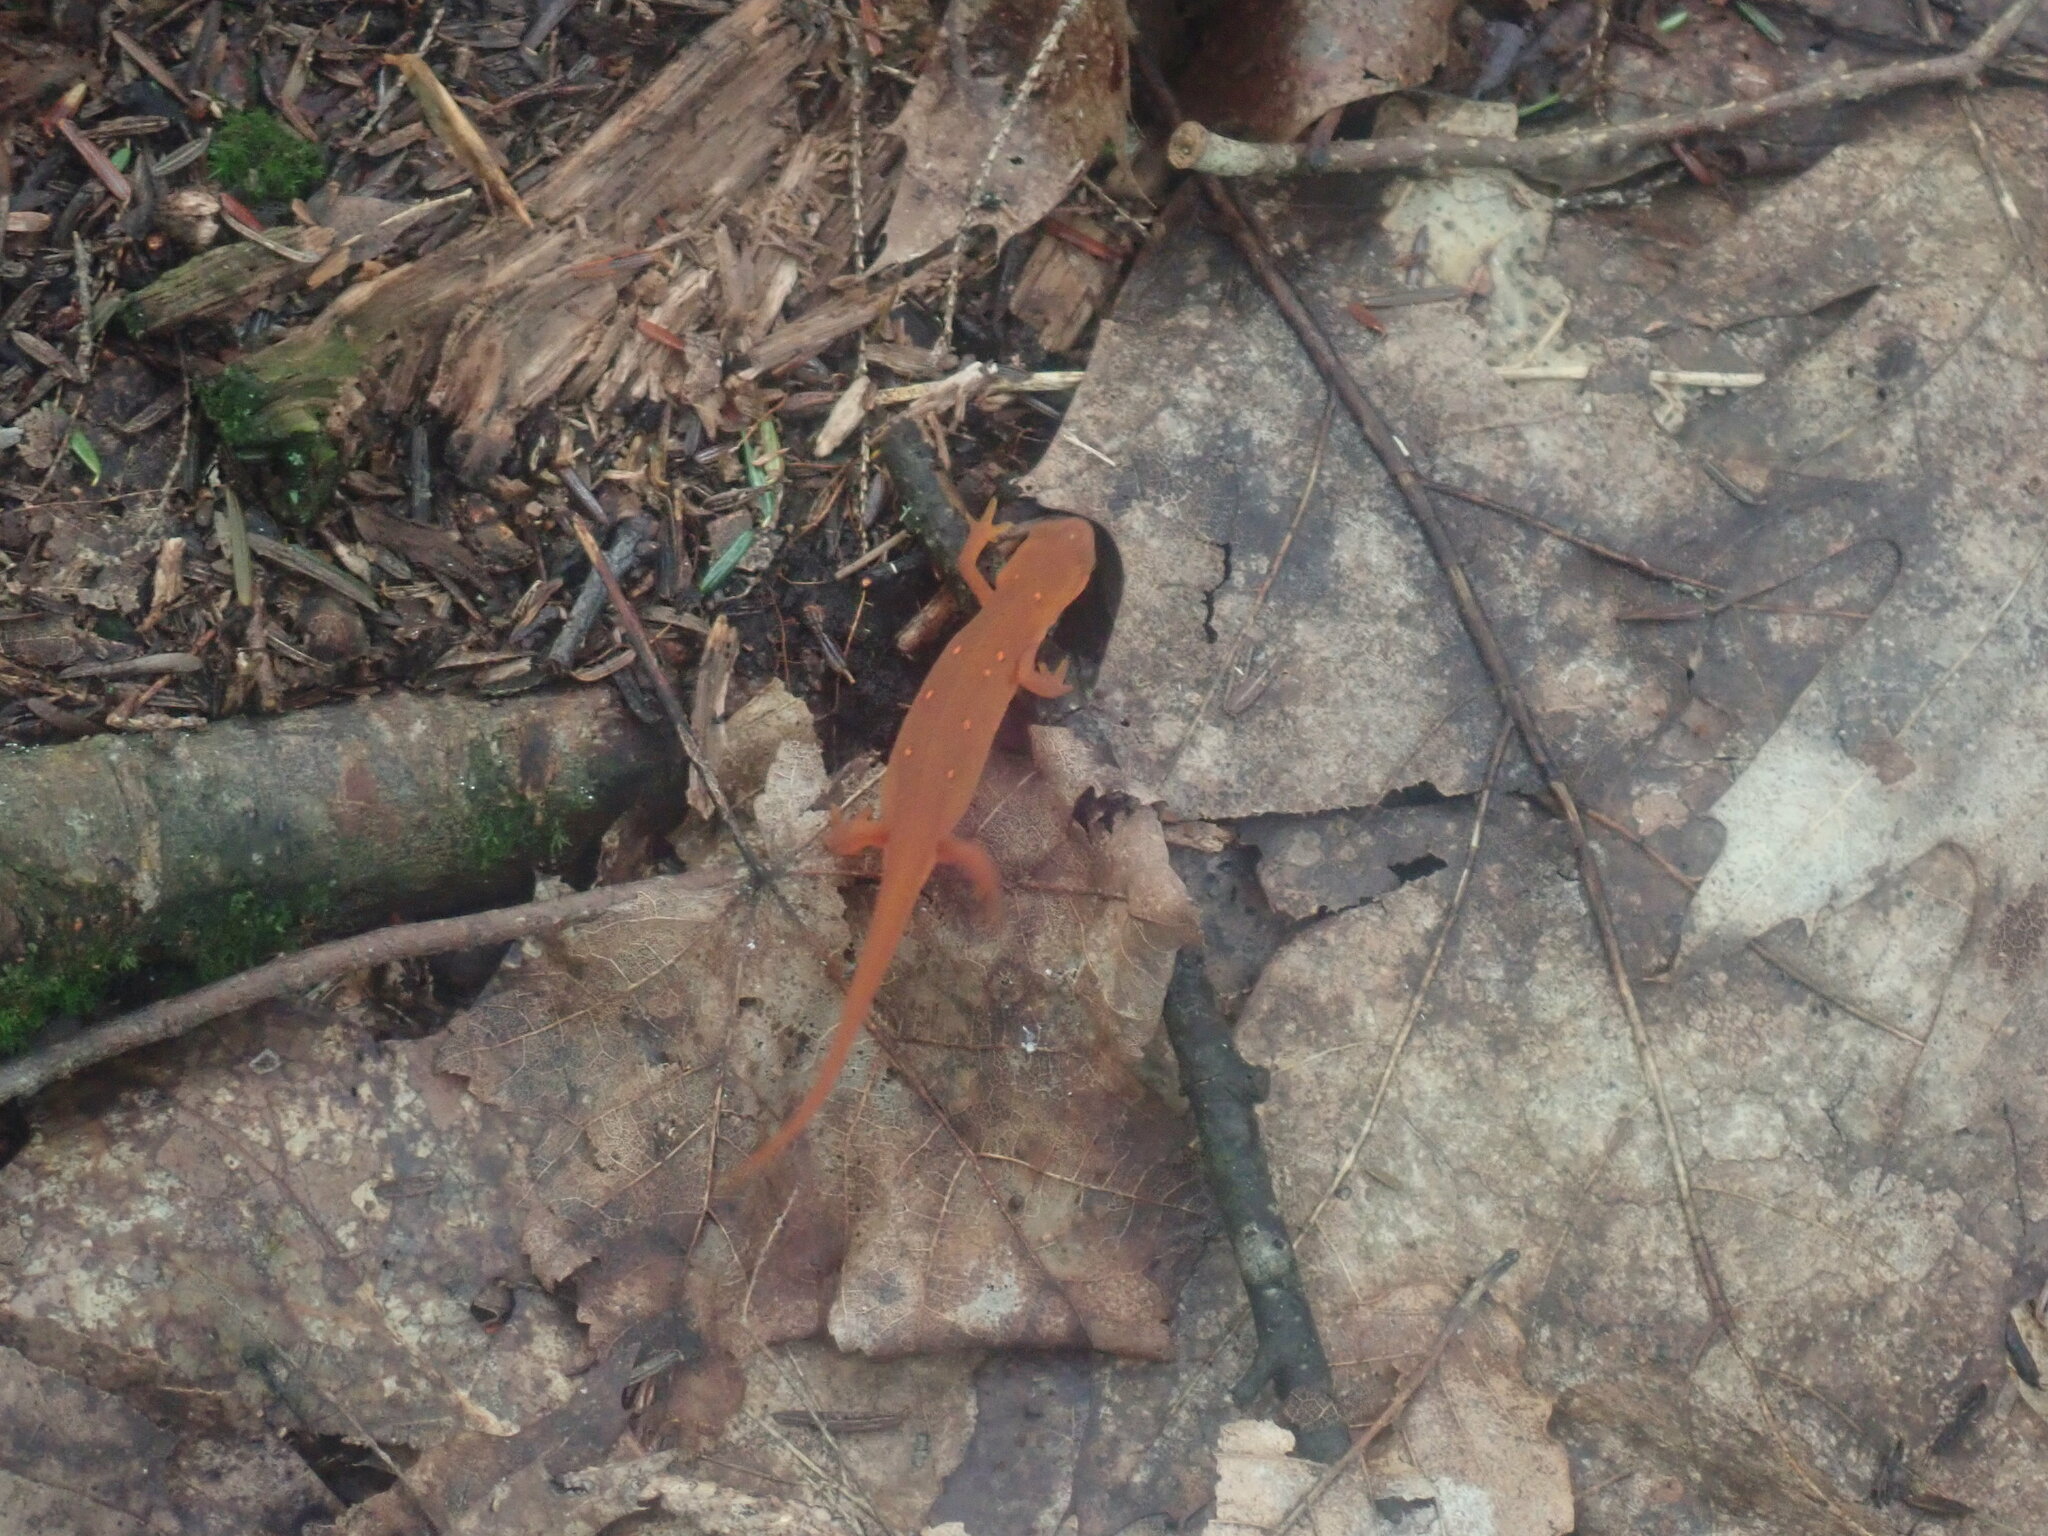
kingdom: Animalia
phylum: Chordata
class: Amphibia
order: Caudata
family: Salamandridae
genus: Notophthalmus
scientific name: Notophthalmus viridescens
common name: Eastern newt
